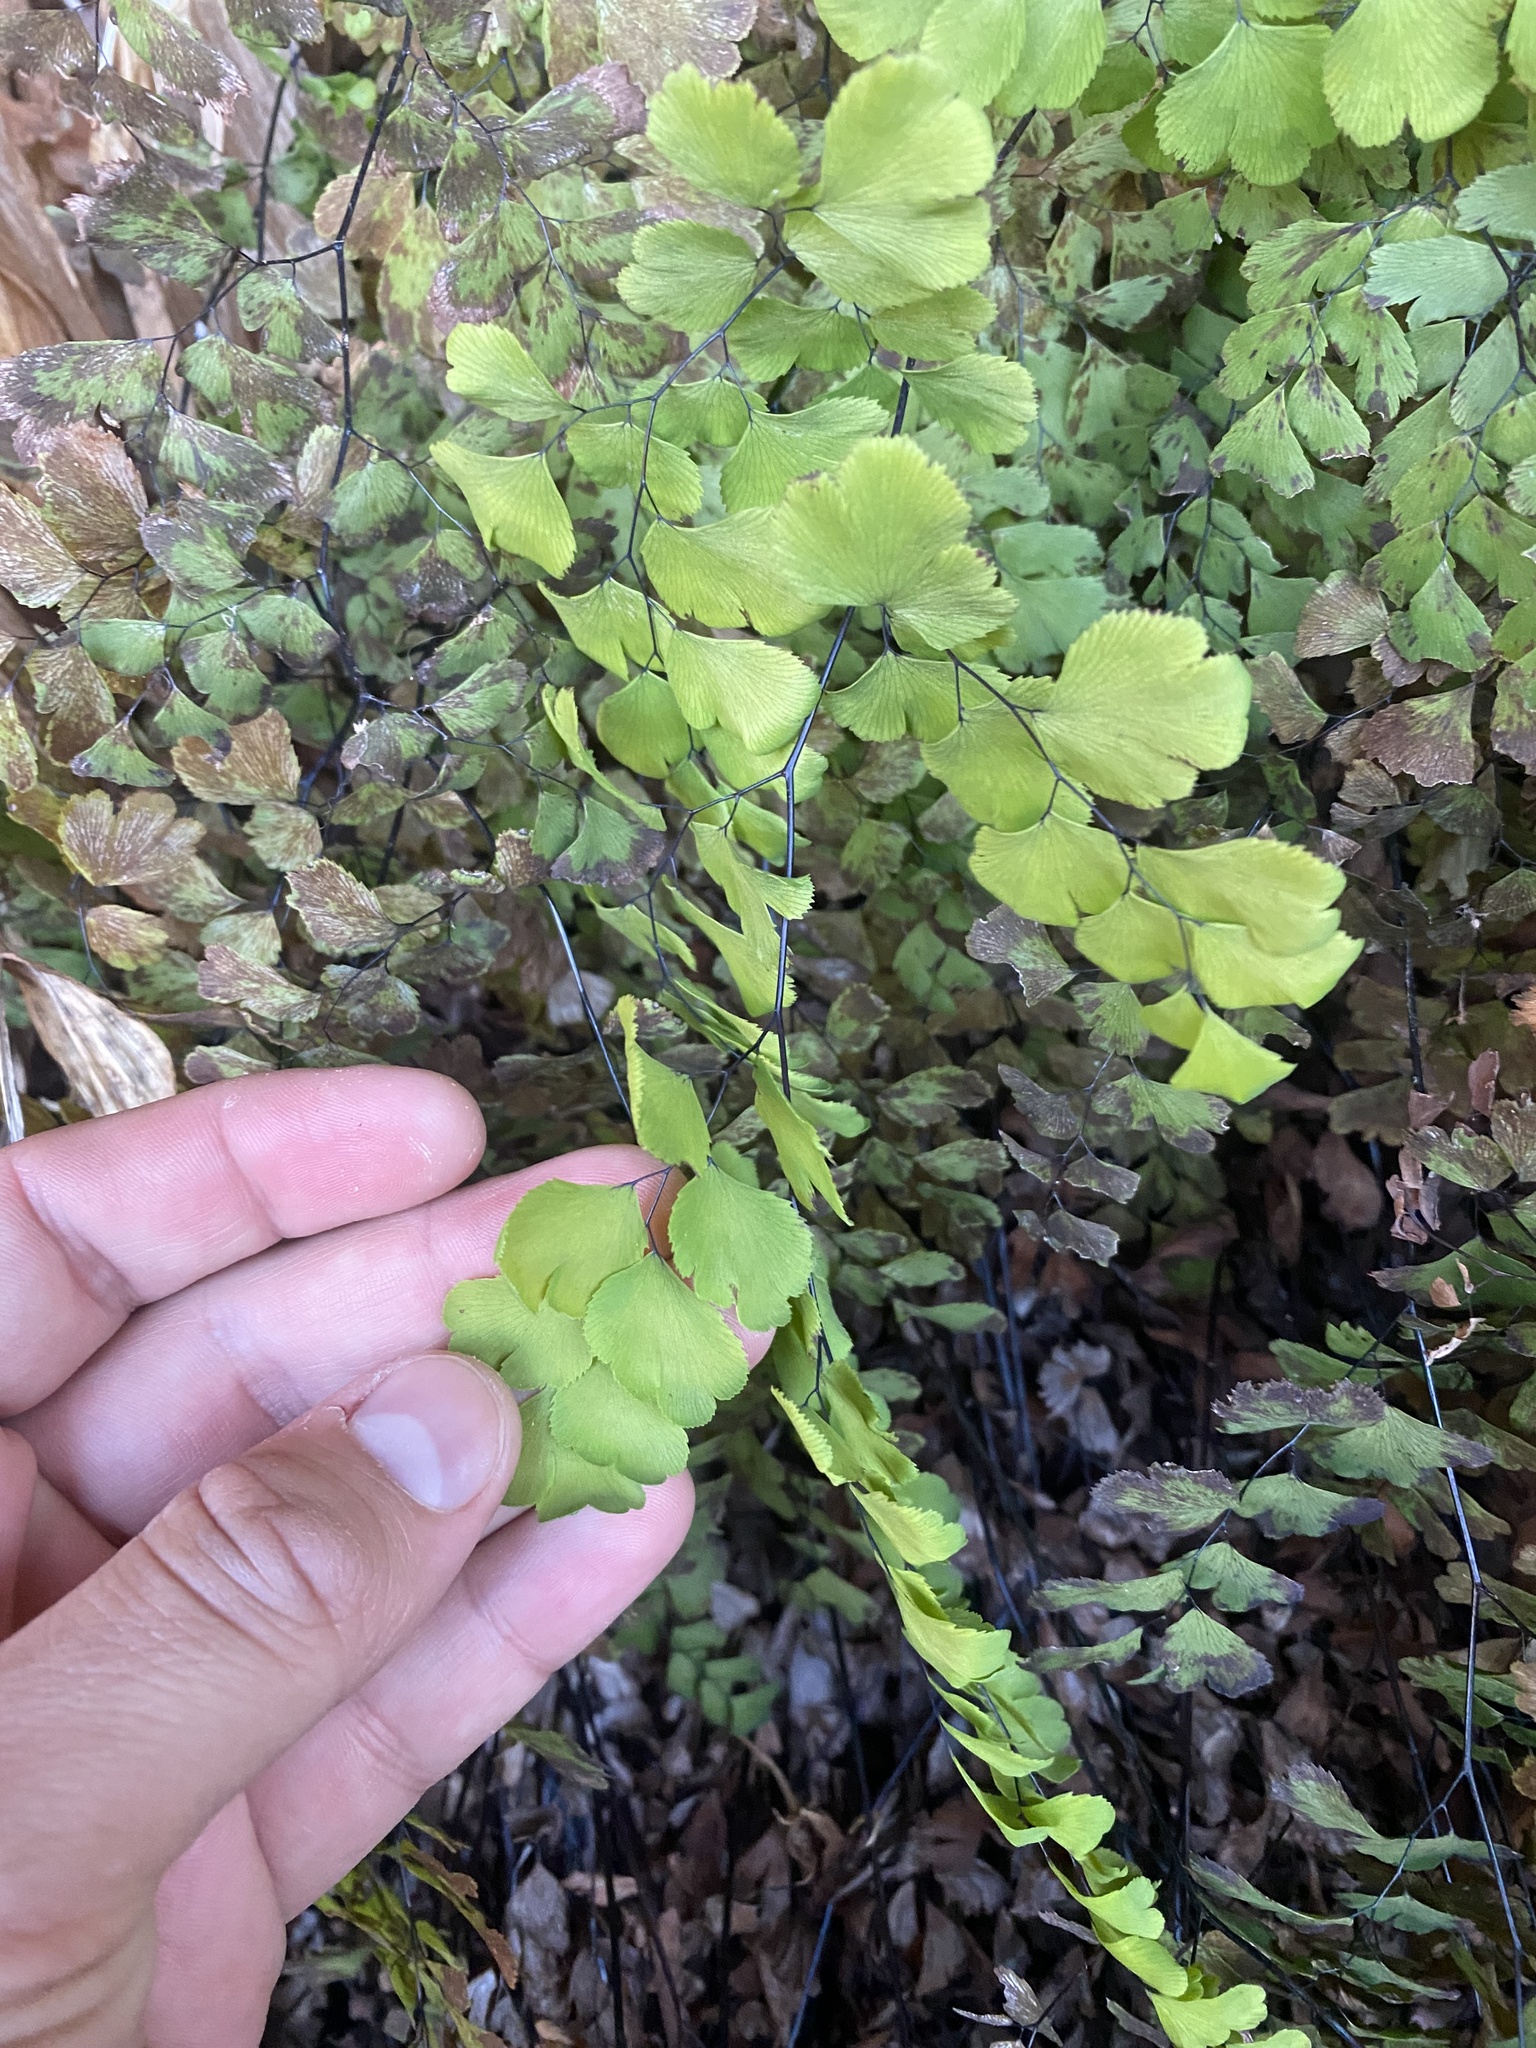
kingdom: Plantae
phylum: Tracheophyta
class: Polypodiopsida
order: Polypodiales
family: Pteridaceae
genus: Adiantum
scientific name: Adiantum capillus-veneris
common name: Maidenhair fern
